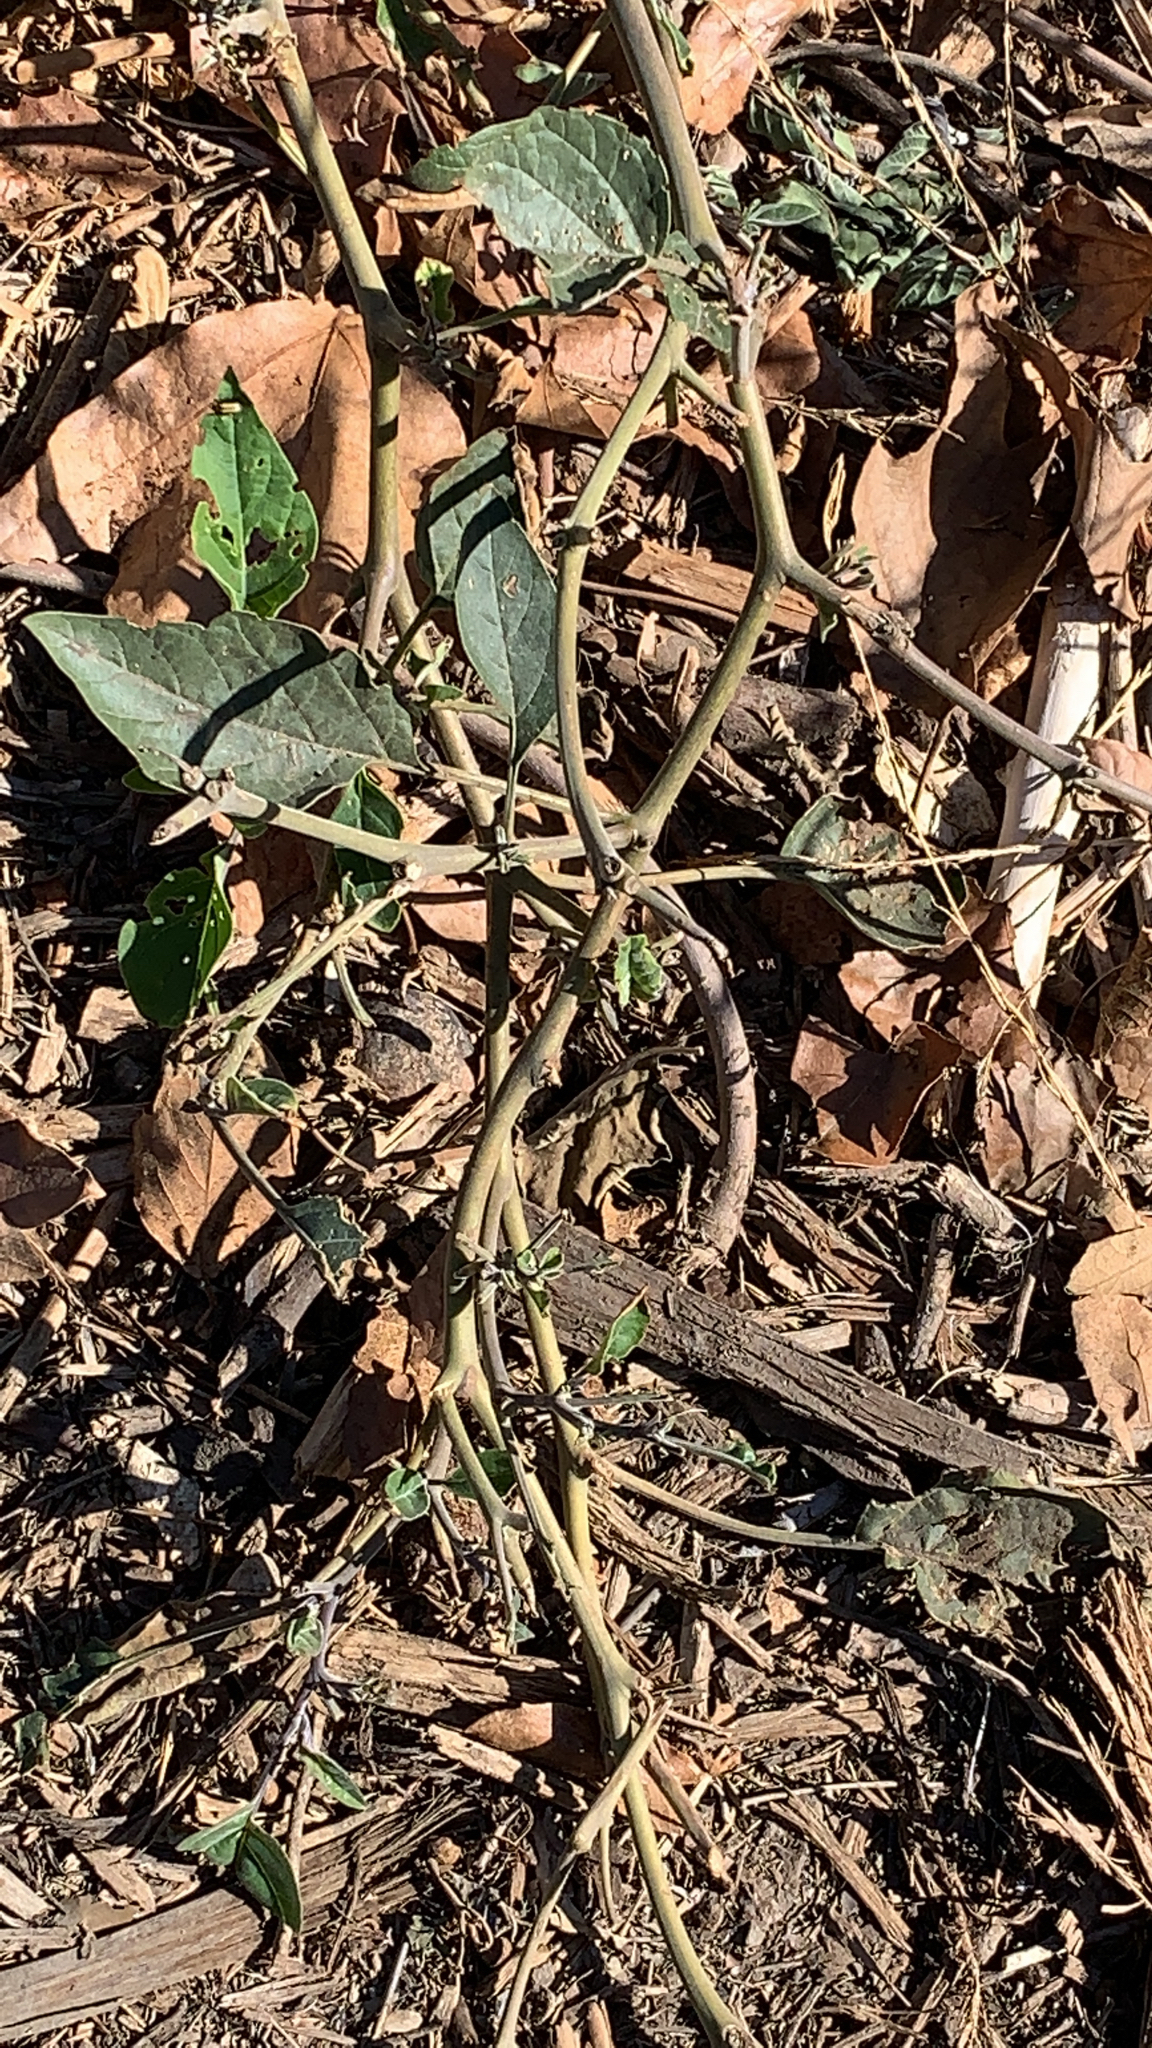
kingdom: Plantae
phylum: Tracheophyta
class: Magnoliopsida
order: Solanales
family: Solanaceae
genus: Datura
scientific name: Datura wrightii
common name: Sacred thorn-apple
